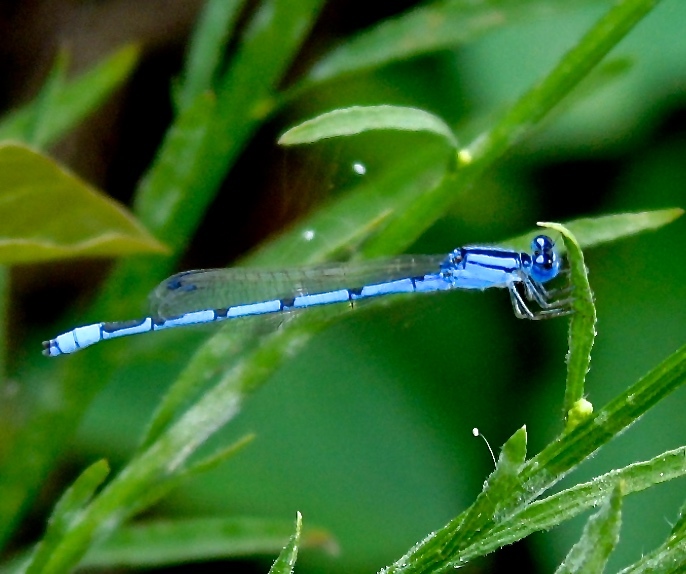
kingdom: Animalia
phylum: Arthropoda
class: Insecta
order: Odonata
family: Coenagrionidae
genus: Enallagma
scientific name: Enallagma civile
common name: Damselfly
